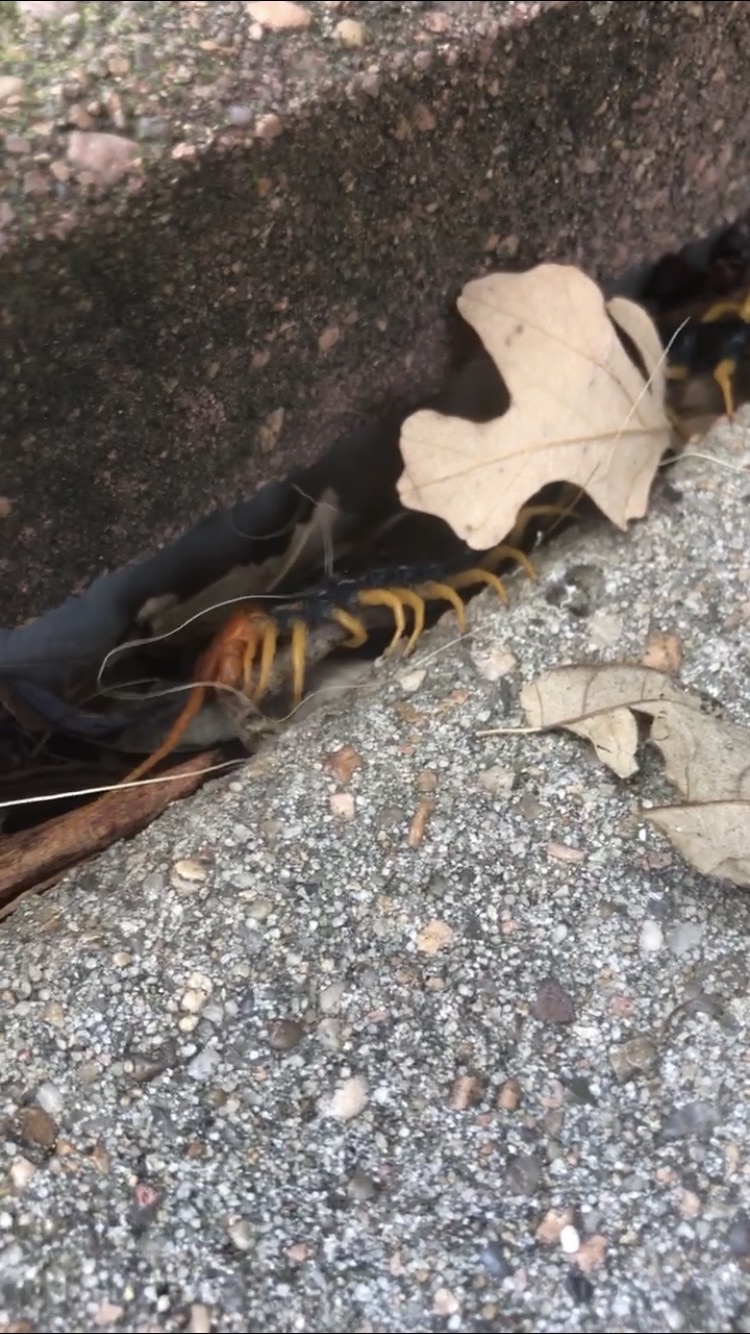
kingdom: Animalia
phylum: Arthropoda
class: Chilopoda
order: Scolopendromorpha
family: Scolopendridae
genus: Scolopendra
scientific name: Scolopendra heros
